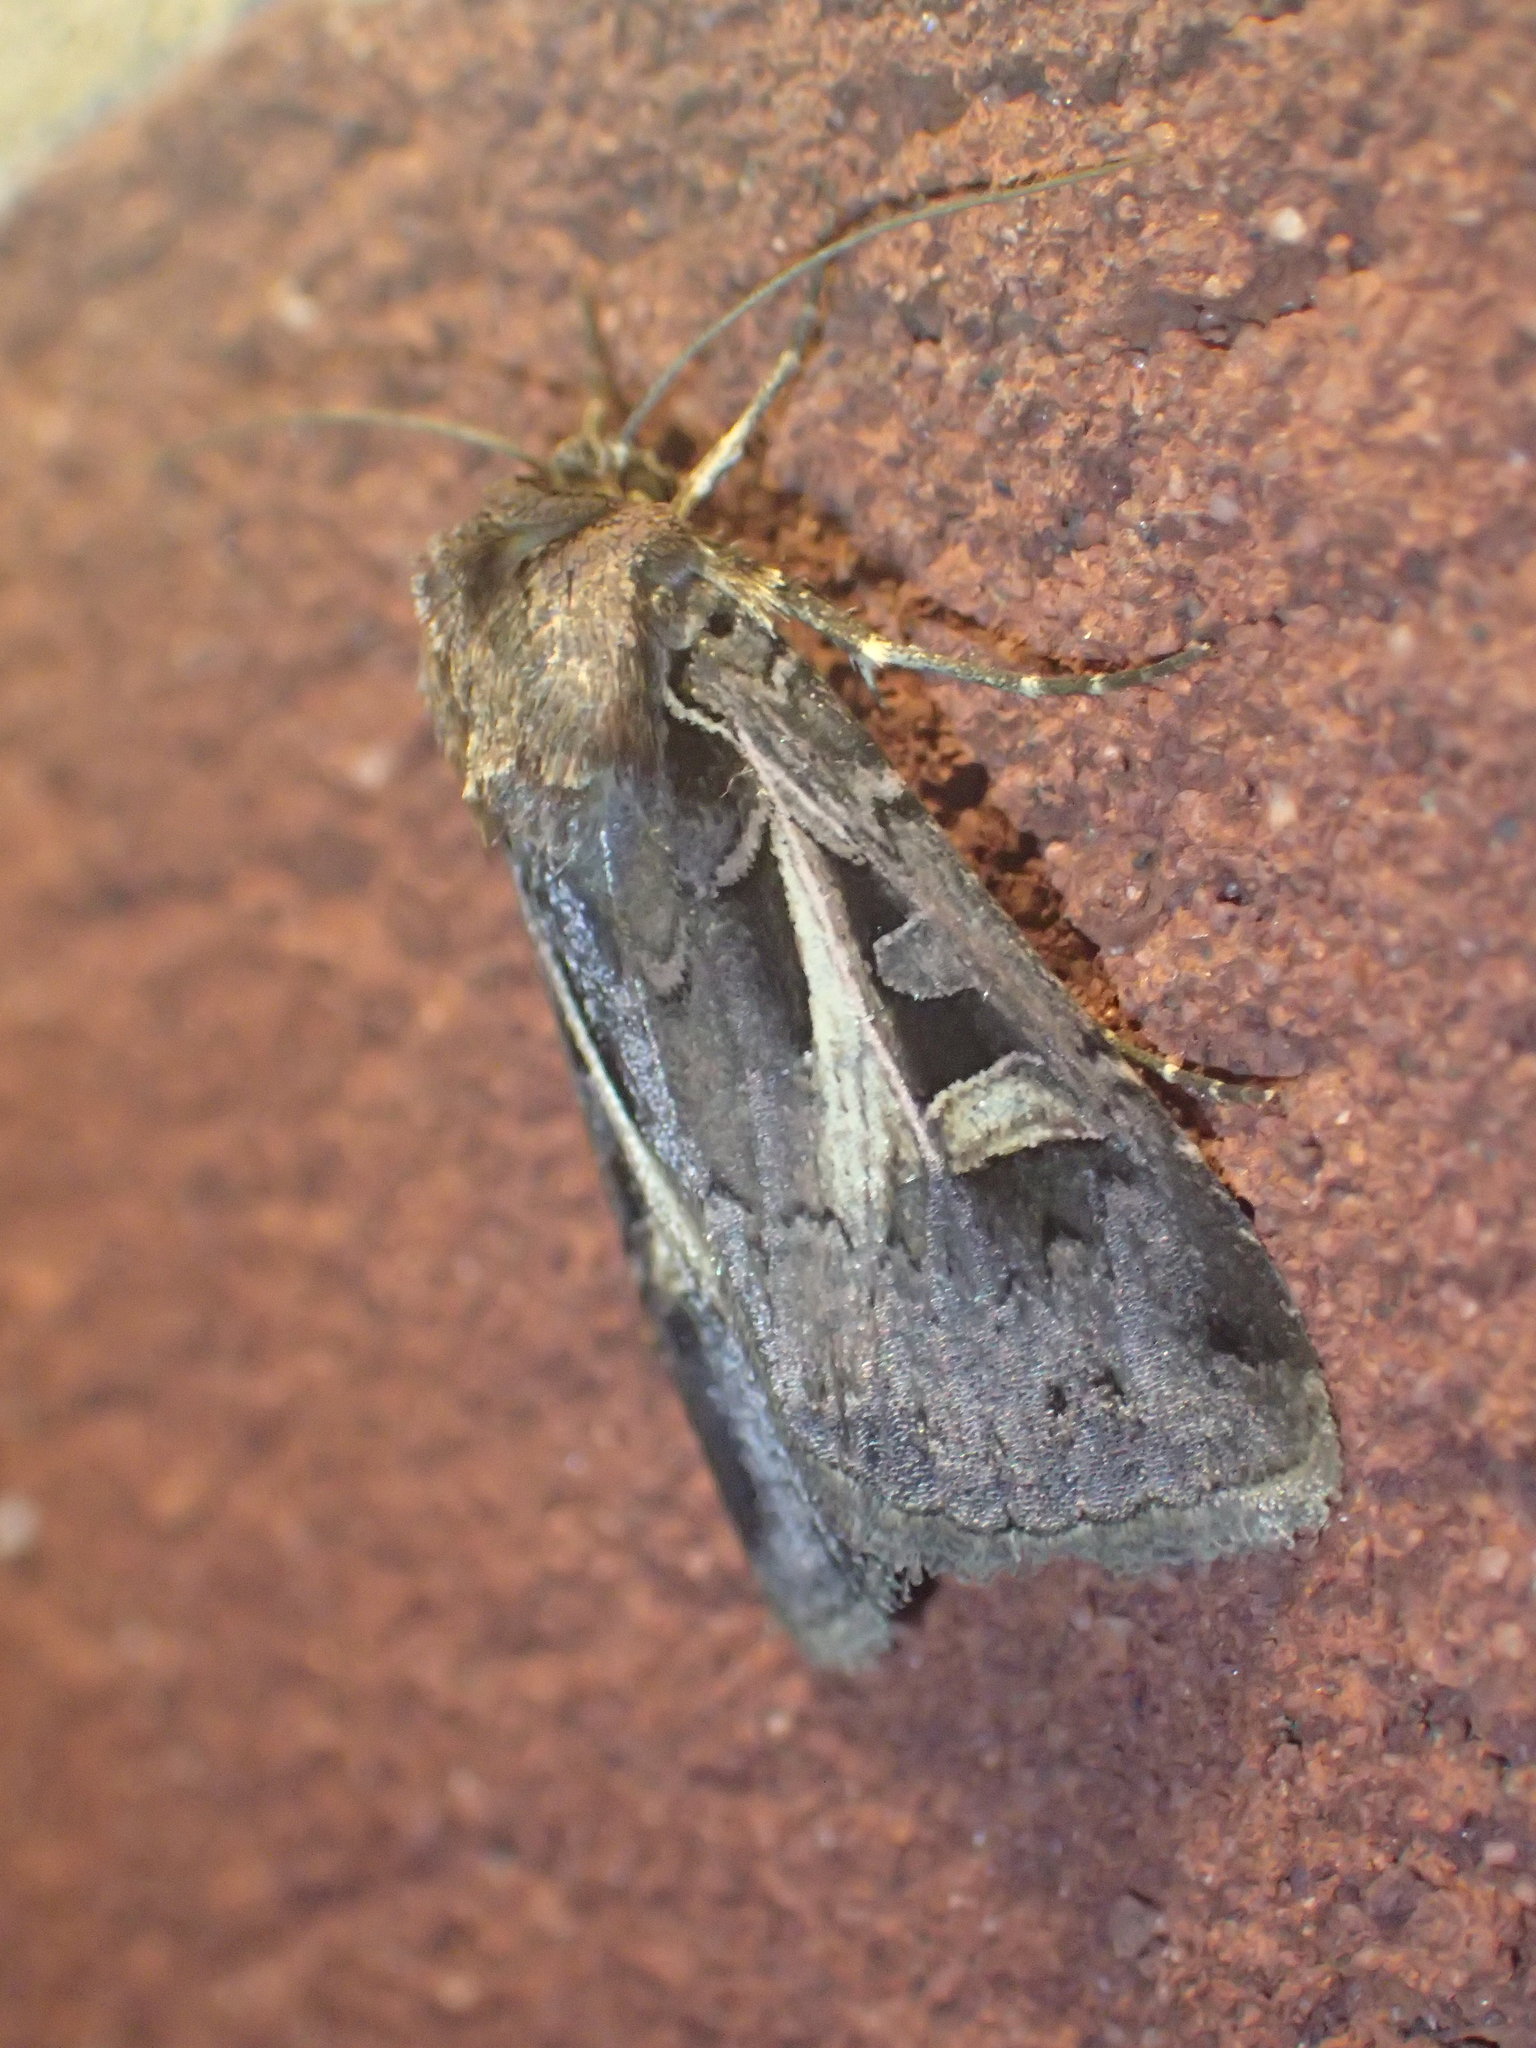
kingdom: Animalia
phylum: Arthropoda
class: Insecta
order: Lepidoptera
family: Noctuidae
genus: Feltia
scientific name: Feltia herilis
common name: Master's dart
